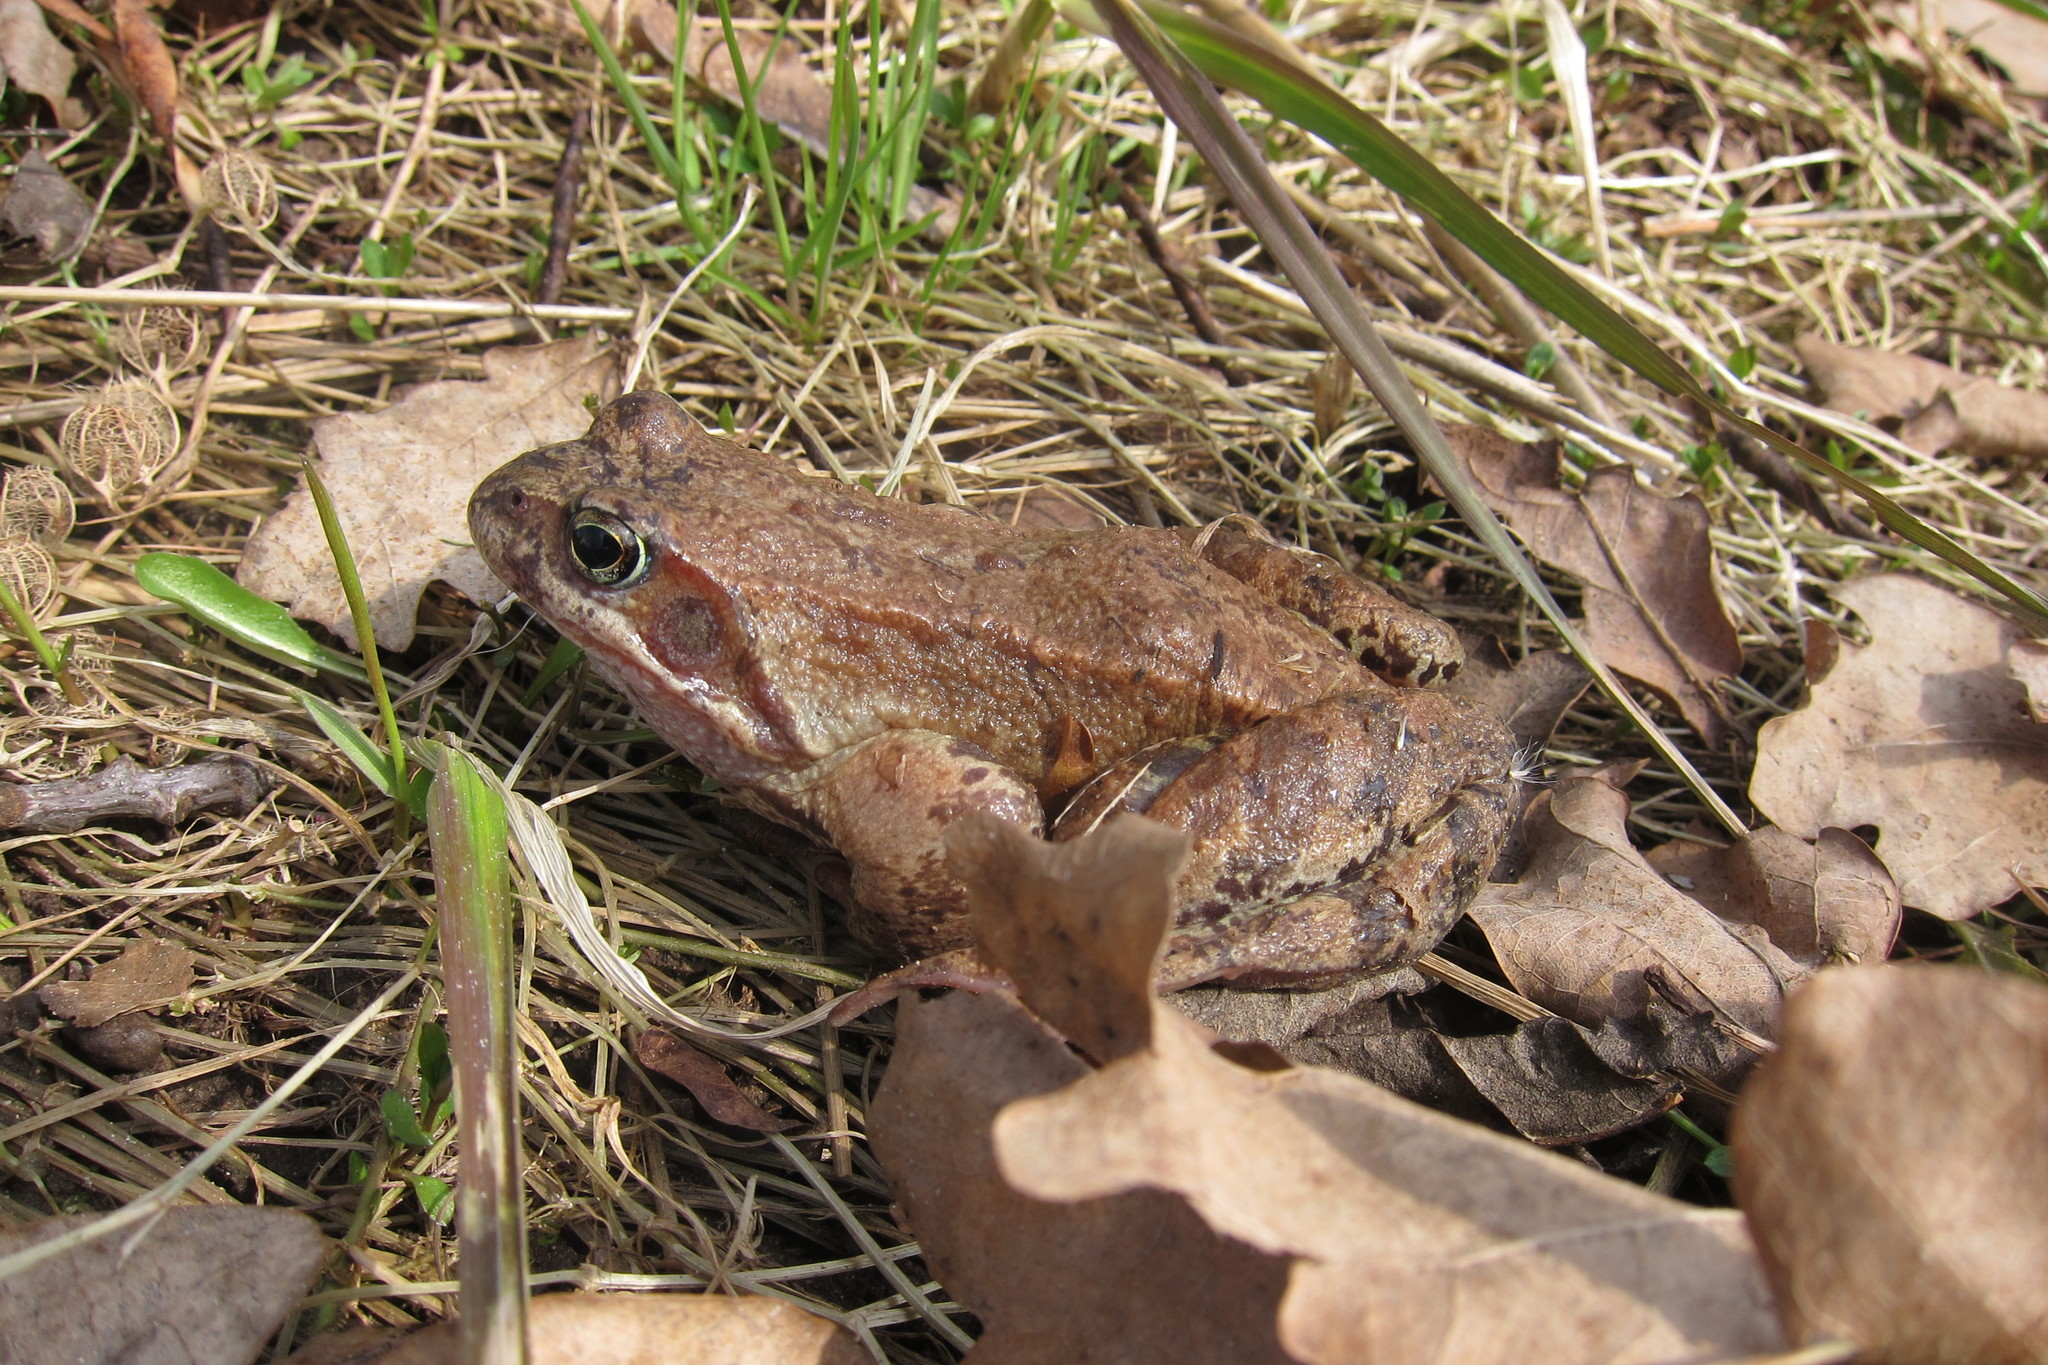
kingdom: Animalia
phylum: Chordata
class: Amphibia
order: Anura
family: Ranidae
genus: Rana
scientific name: Rana temporaria
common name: Common frog
